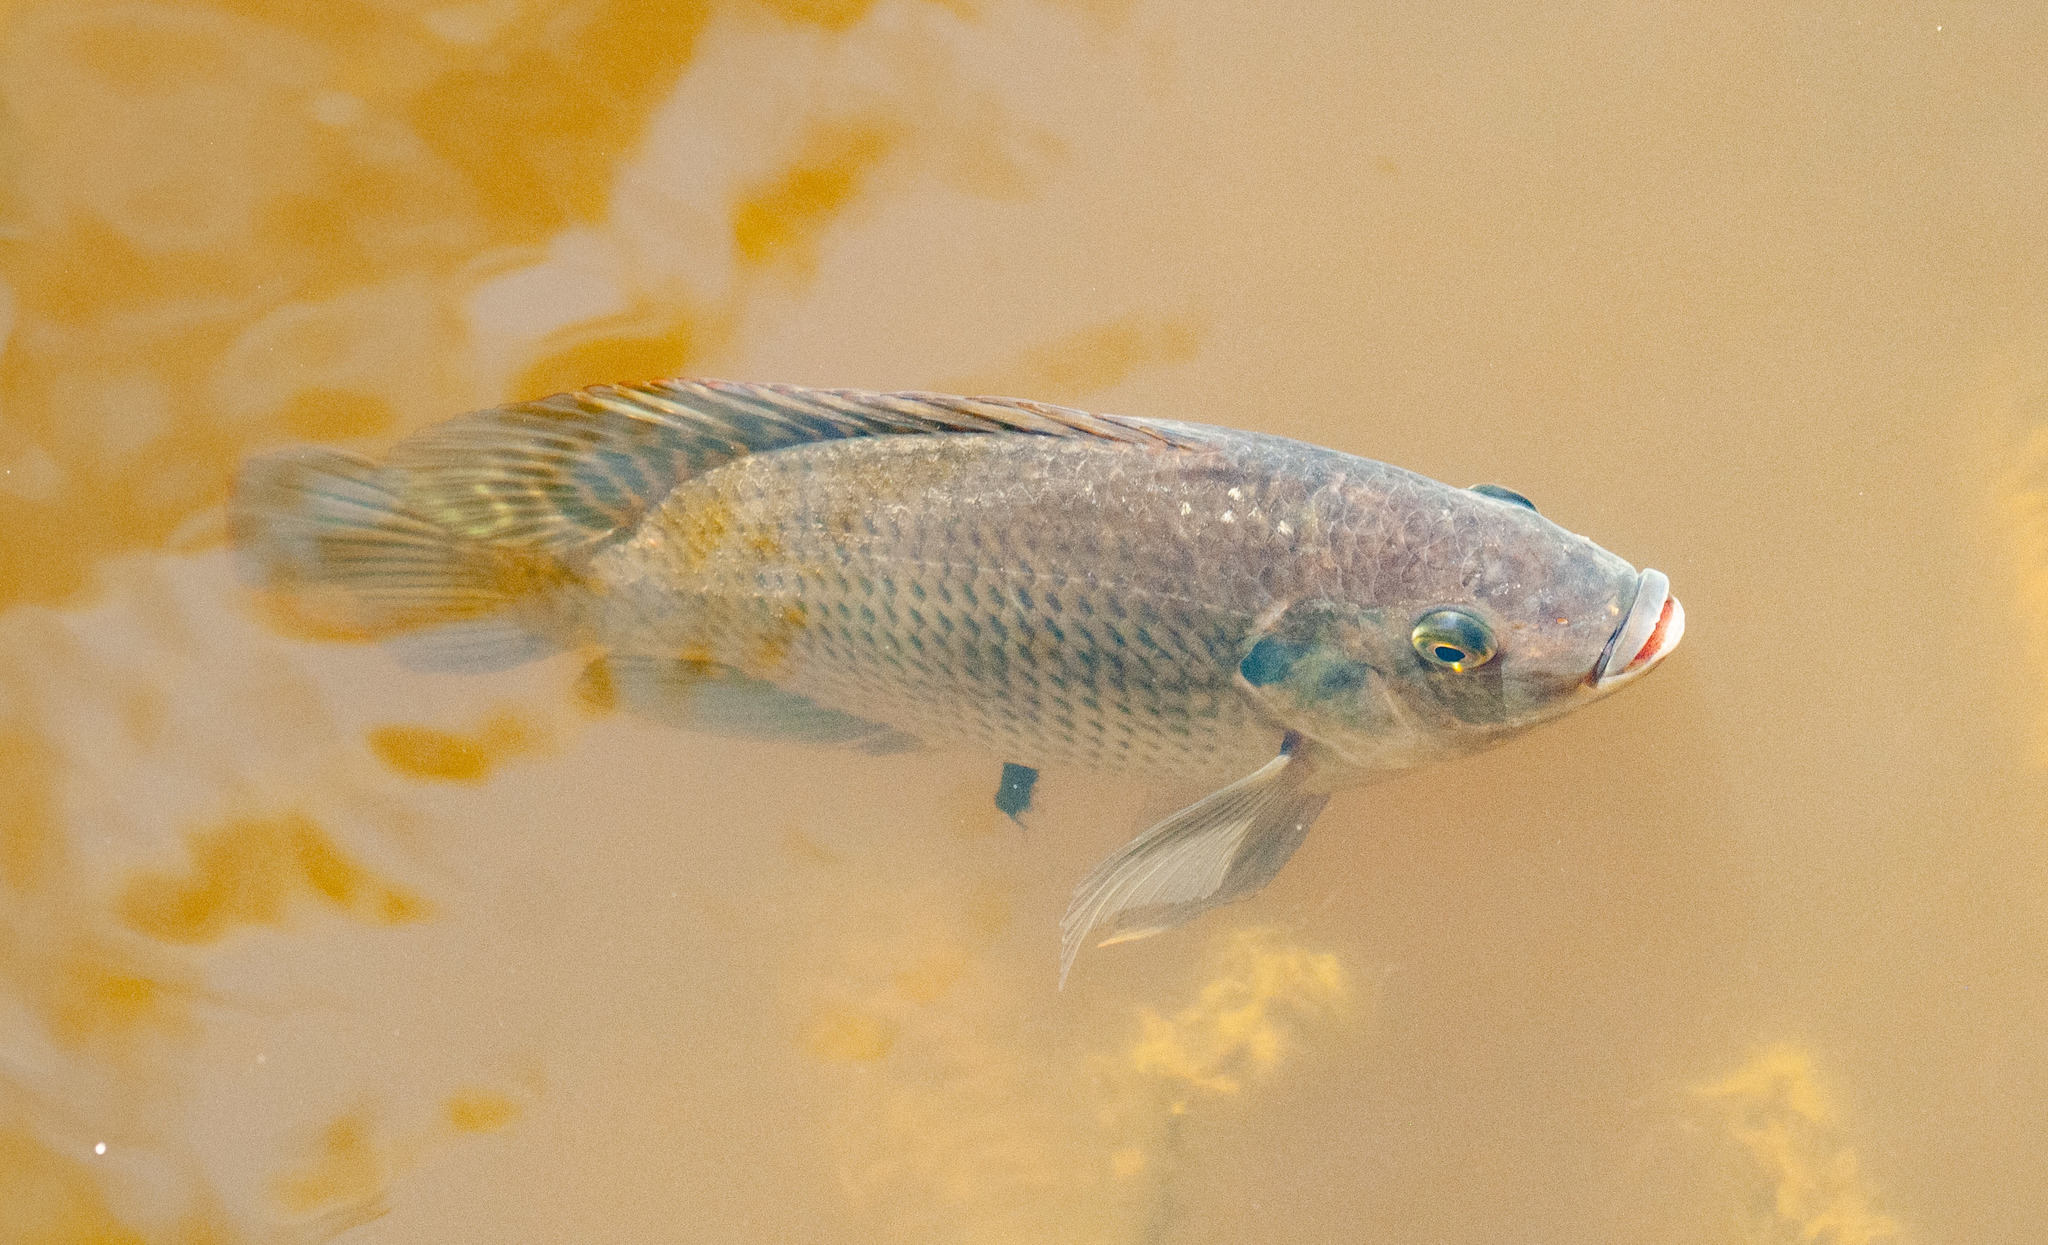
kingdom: Animalia
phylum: Chordata
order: Perciformes
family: Cichlidae
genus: Oreochromis
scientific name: Oreochromis mossambicus
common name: Mozambique tilapia
